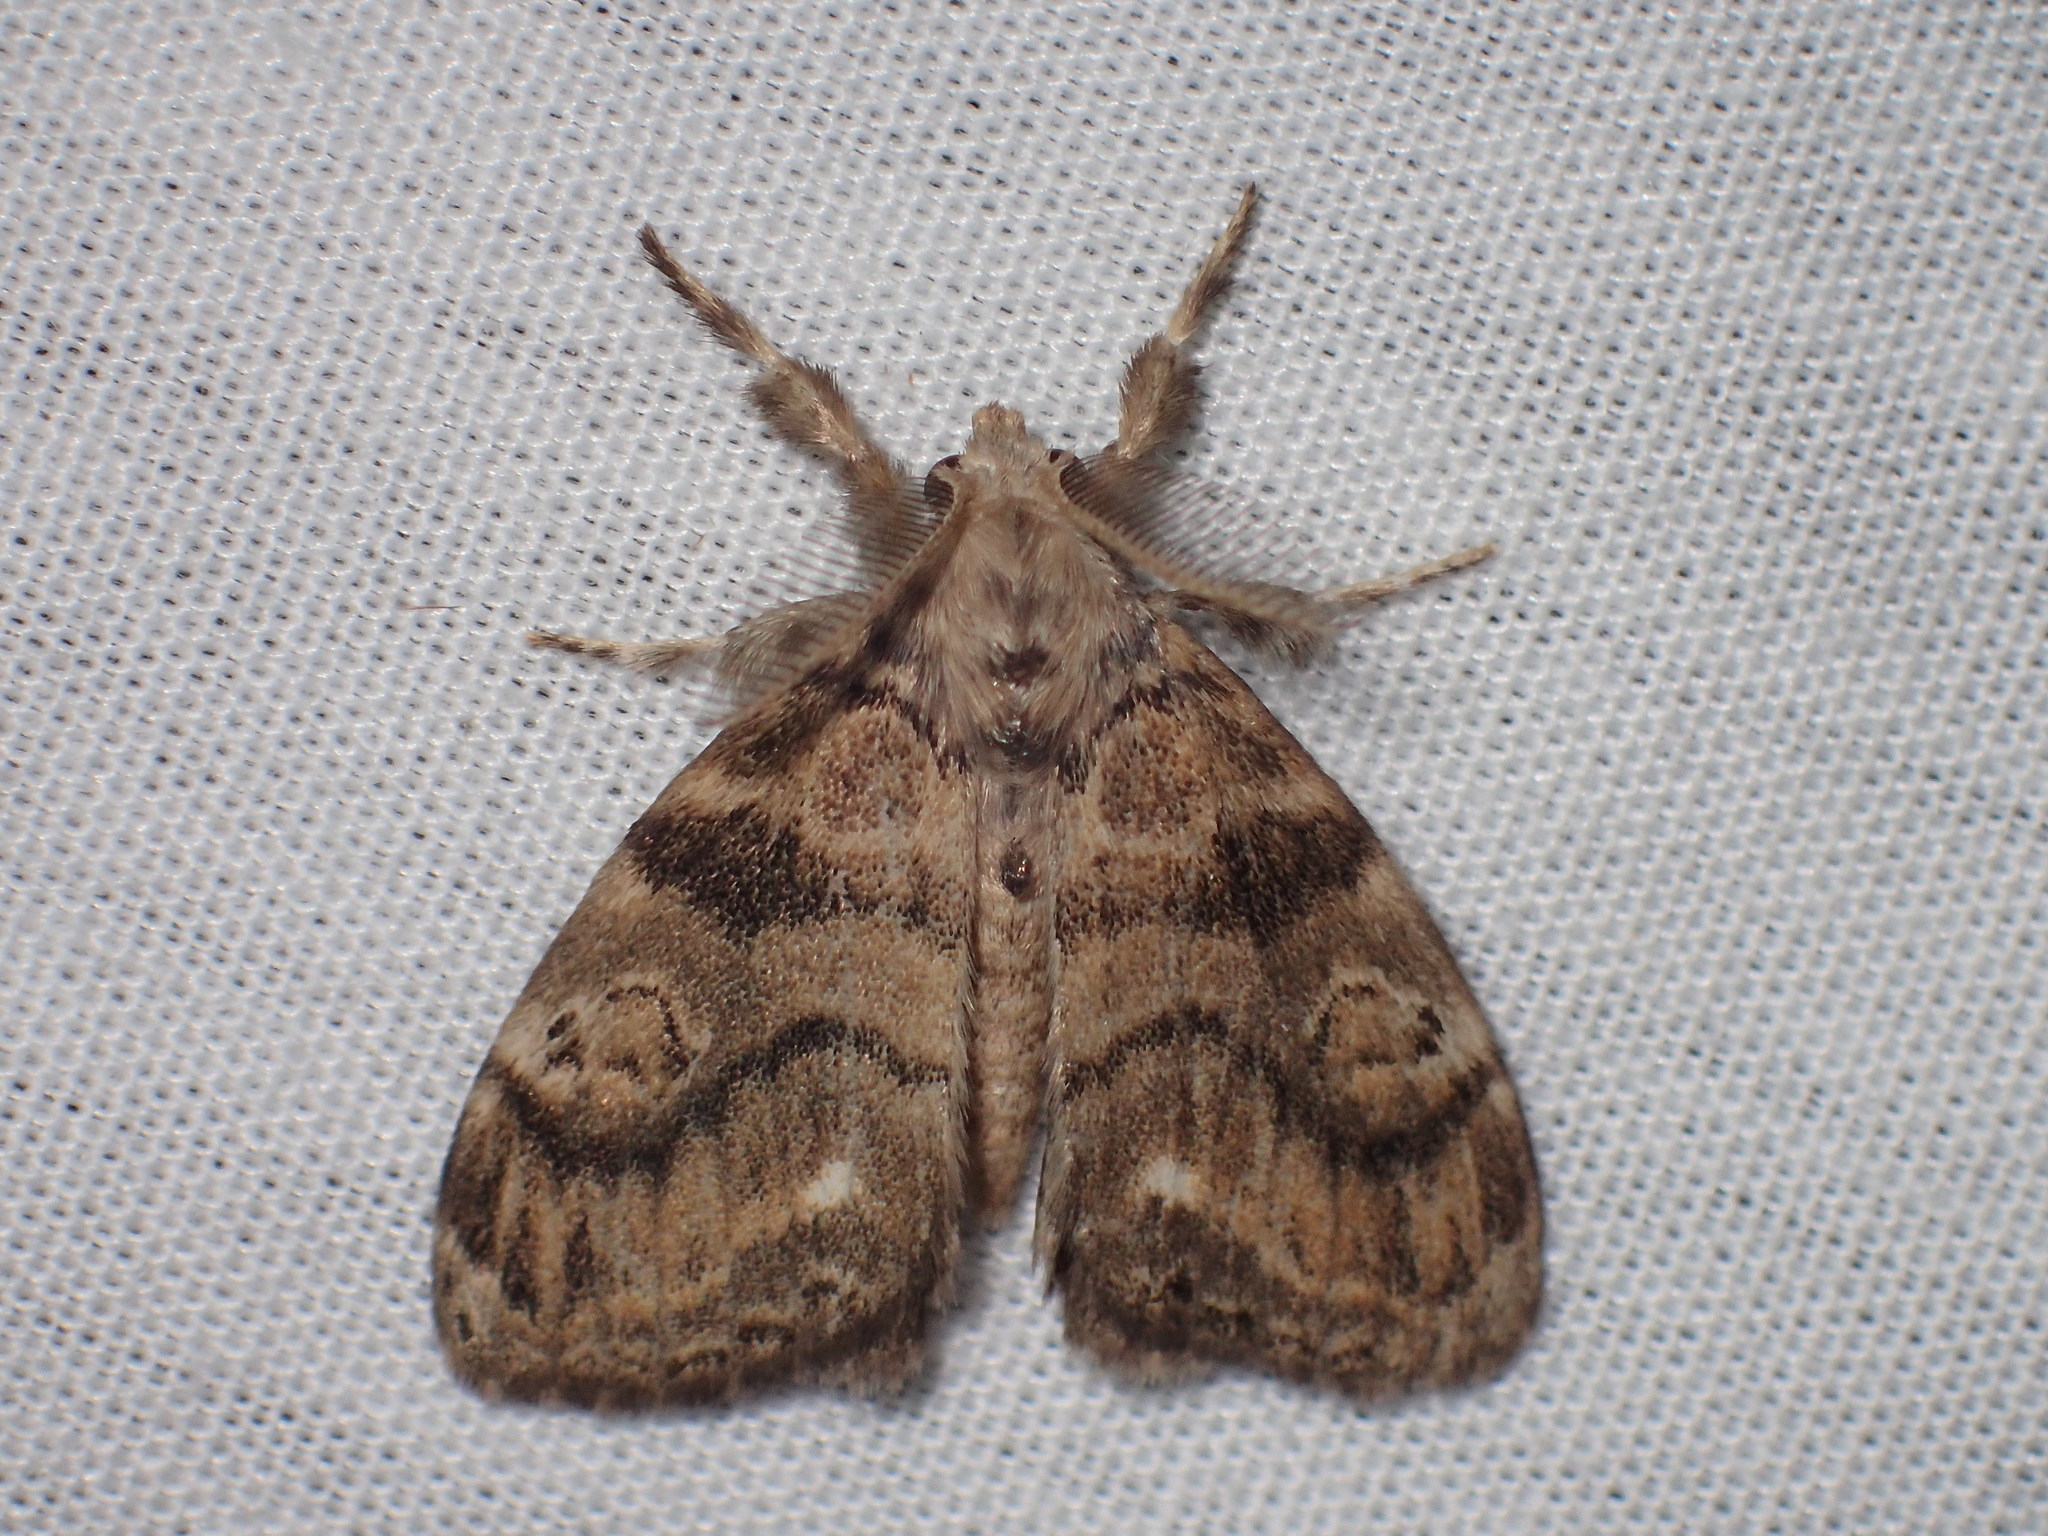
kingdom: Animalia
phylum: Arthropoda
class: Insecta
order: Lepidoptera
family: Erebidae
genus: Dasychira
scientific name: Dasychira meridionalis
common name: Southern tussock moth
